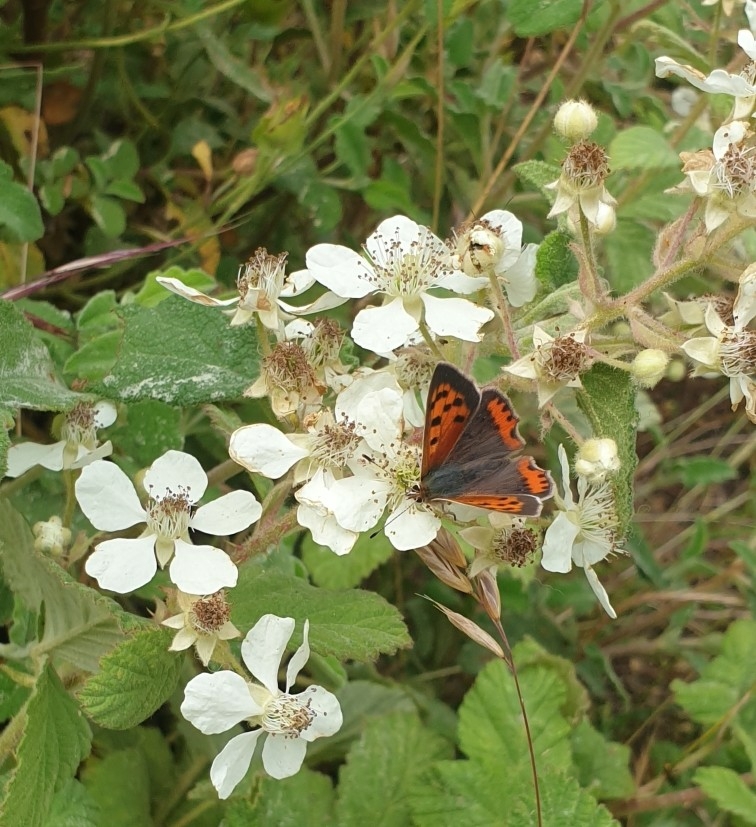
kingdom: Animalia
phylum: Arthropoda
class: Insecta
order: Lepidoptera
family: Lycaenidae
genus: Lycaena
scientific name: Lycaena phlaeas
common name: Small copper
